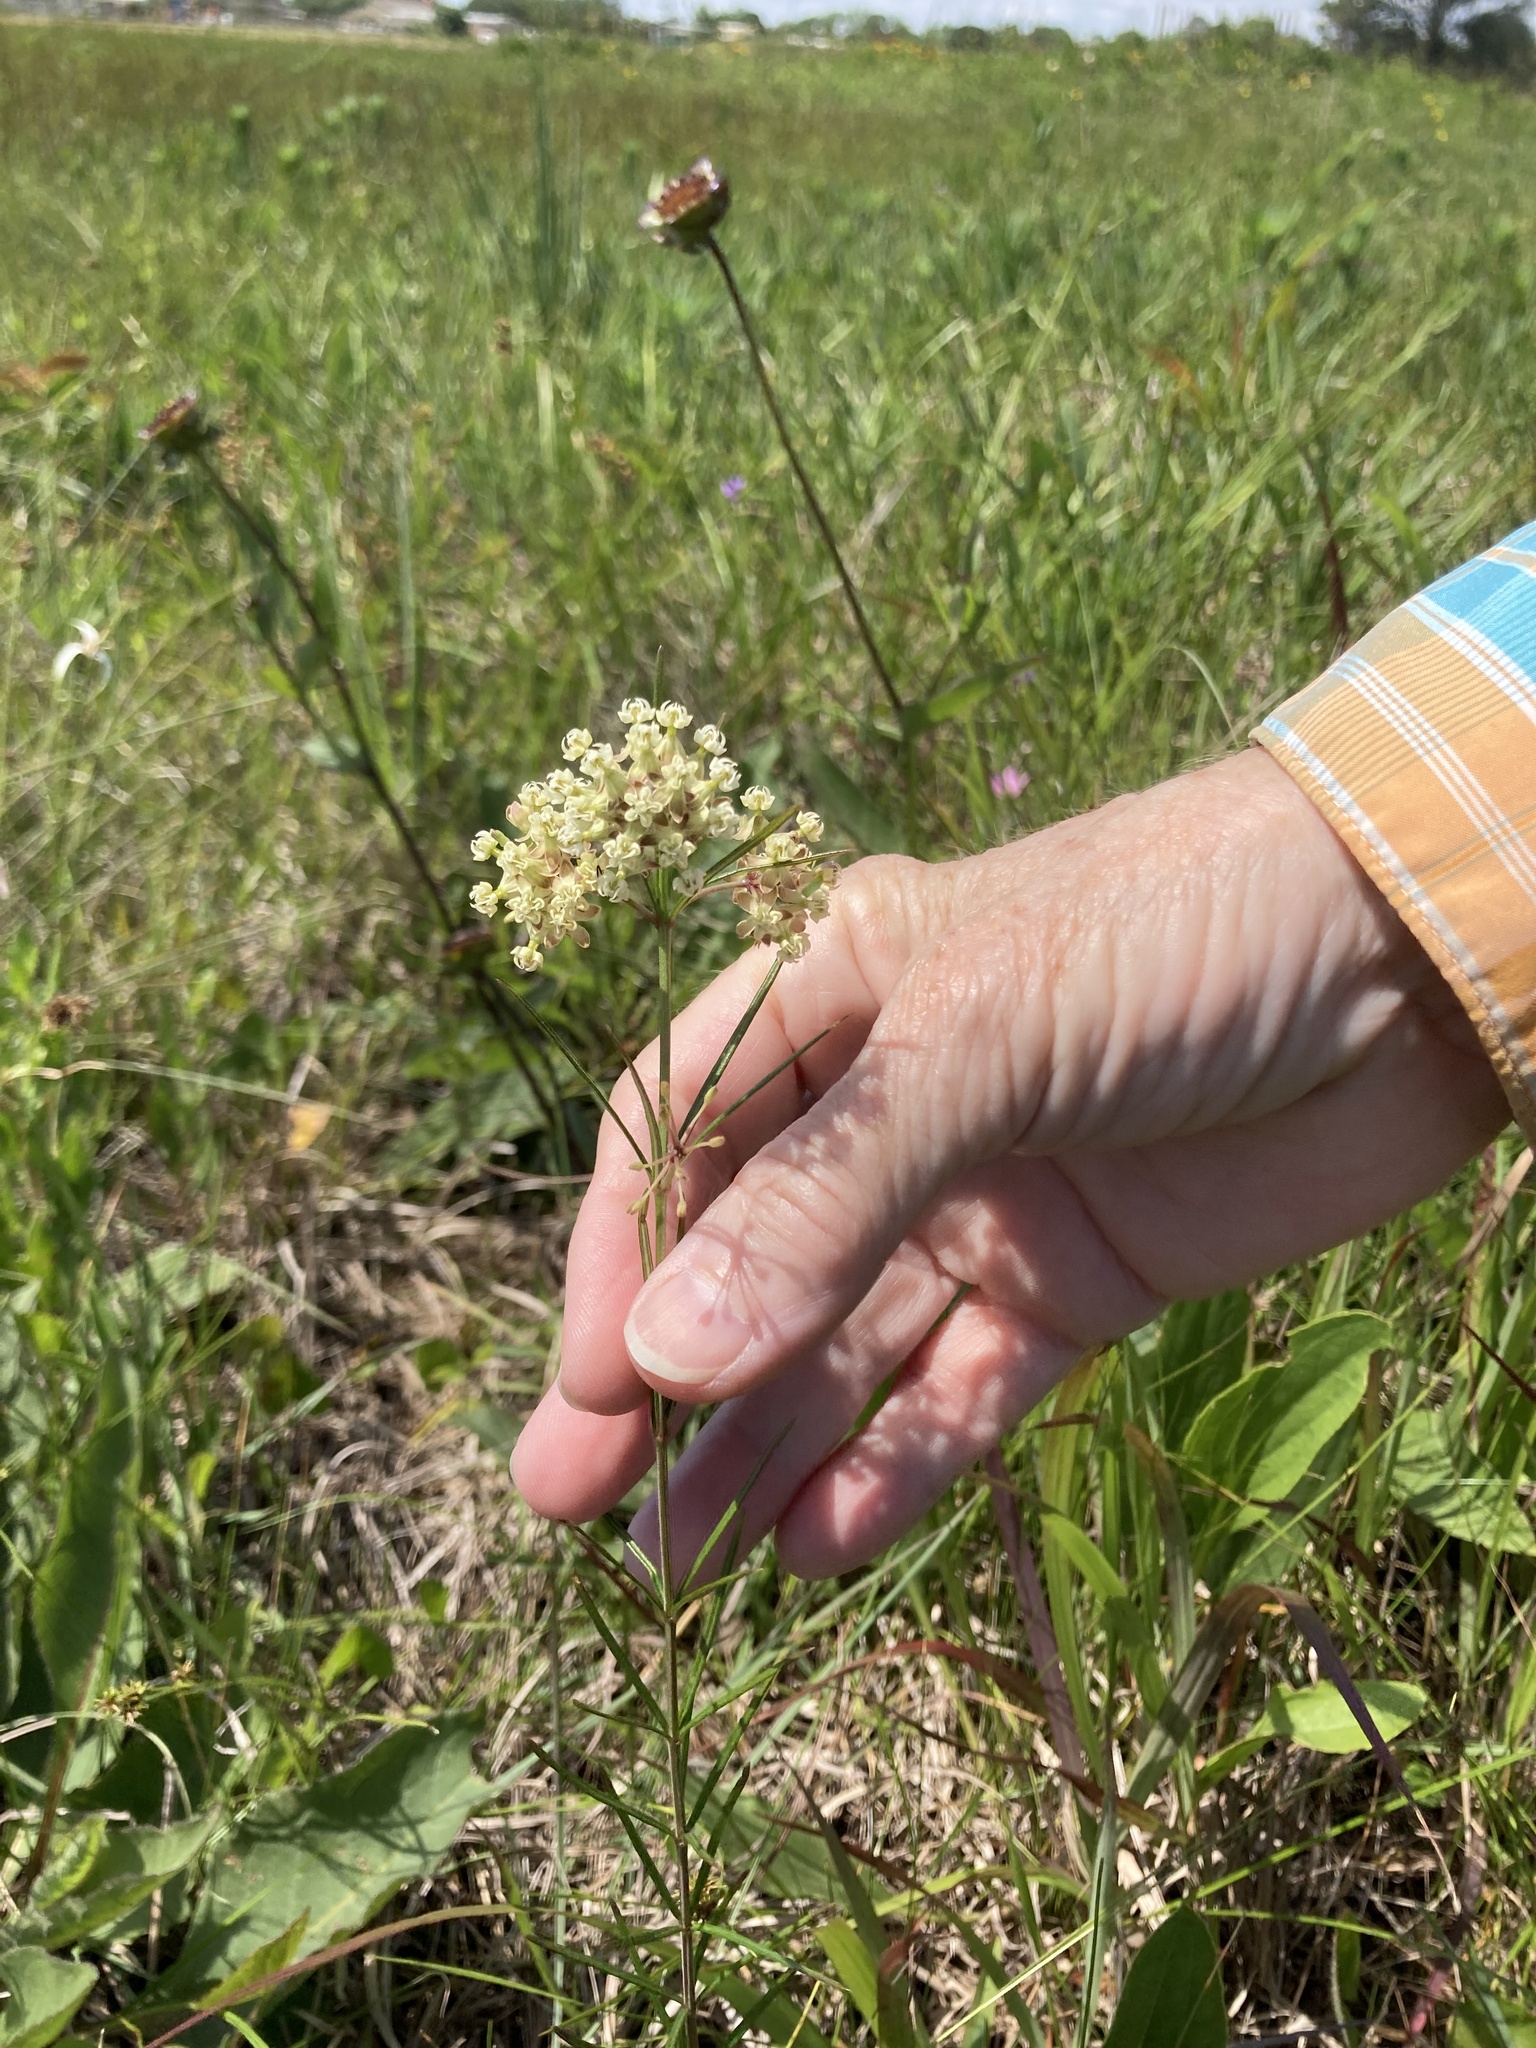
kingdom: Plantae
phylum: Tracheophyta
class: Magnoliopsida
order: Gentianales
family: Apocynaceae
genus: Asclepias
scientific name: Asclepias verticillata
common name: Eastern whorled milkweed
